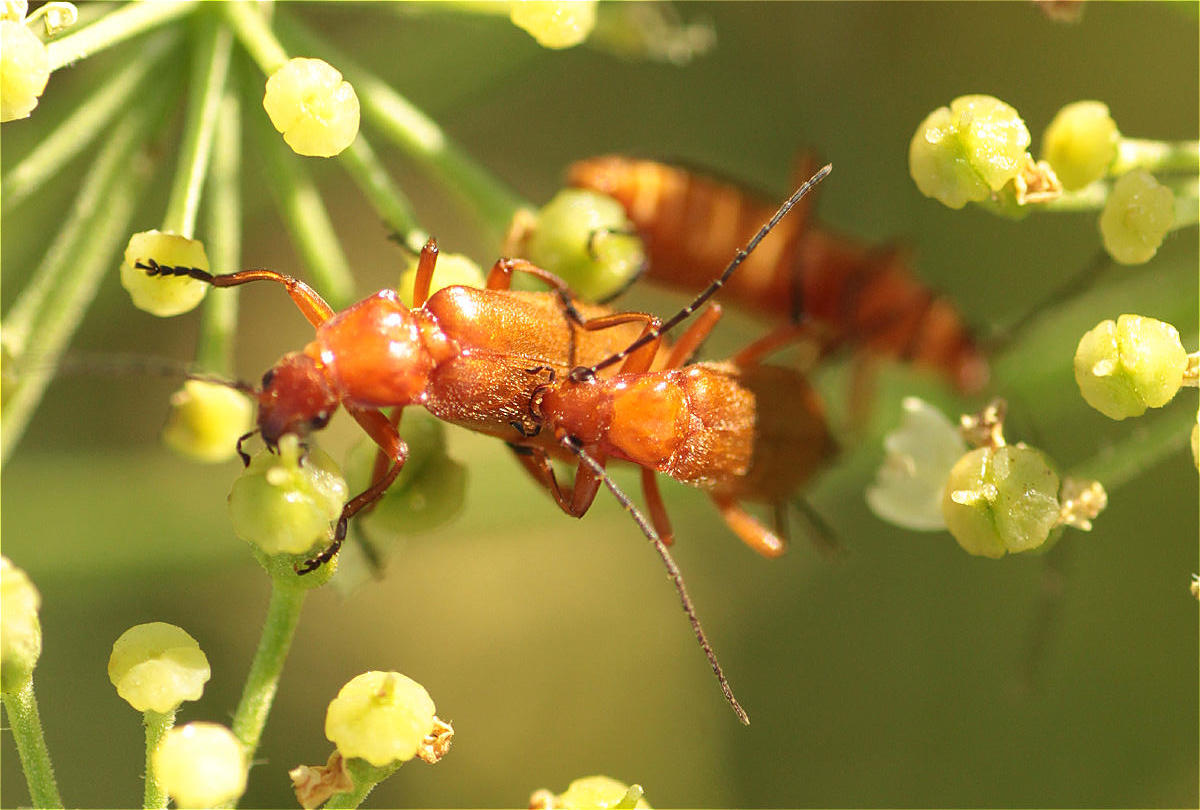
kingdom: Animalia
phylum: Arthropoda
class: Insecta
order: Coleoptera
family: Cantharidae
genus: Rhagonycha
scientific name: Rhagonycha fulva
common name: Common red soldier beetle
